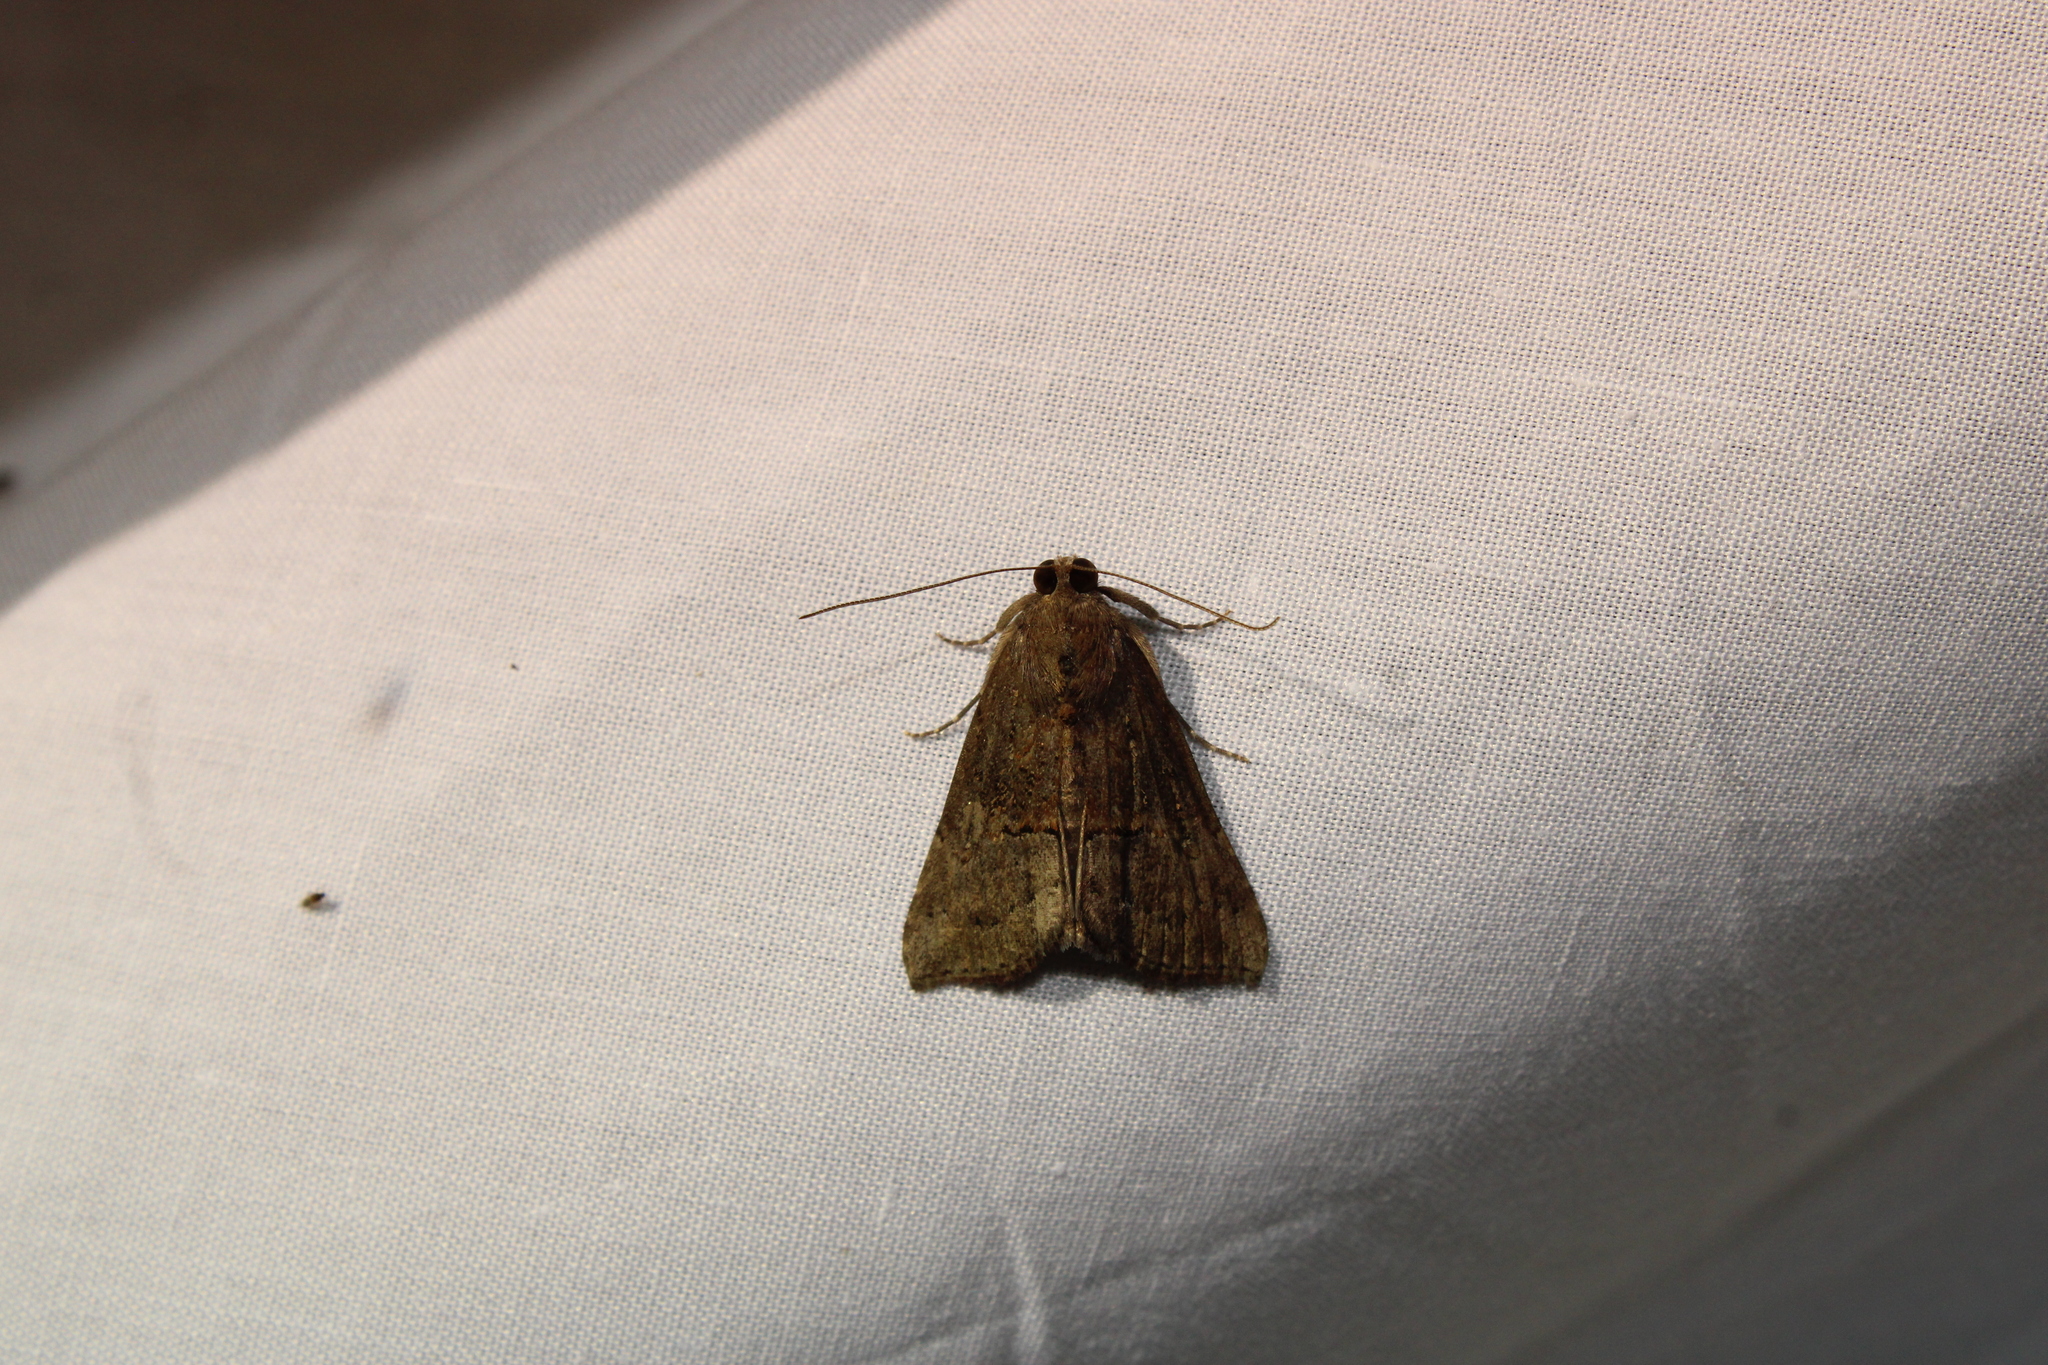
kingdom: Animalia
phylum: Arthropoda
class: Insecta
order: Lepidoptera
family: Erebidae
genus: Hypena
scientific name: Hypena scabra
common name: Green cloverworm
